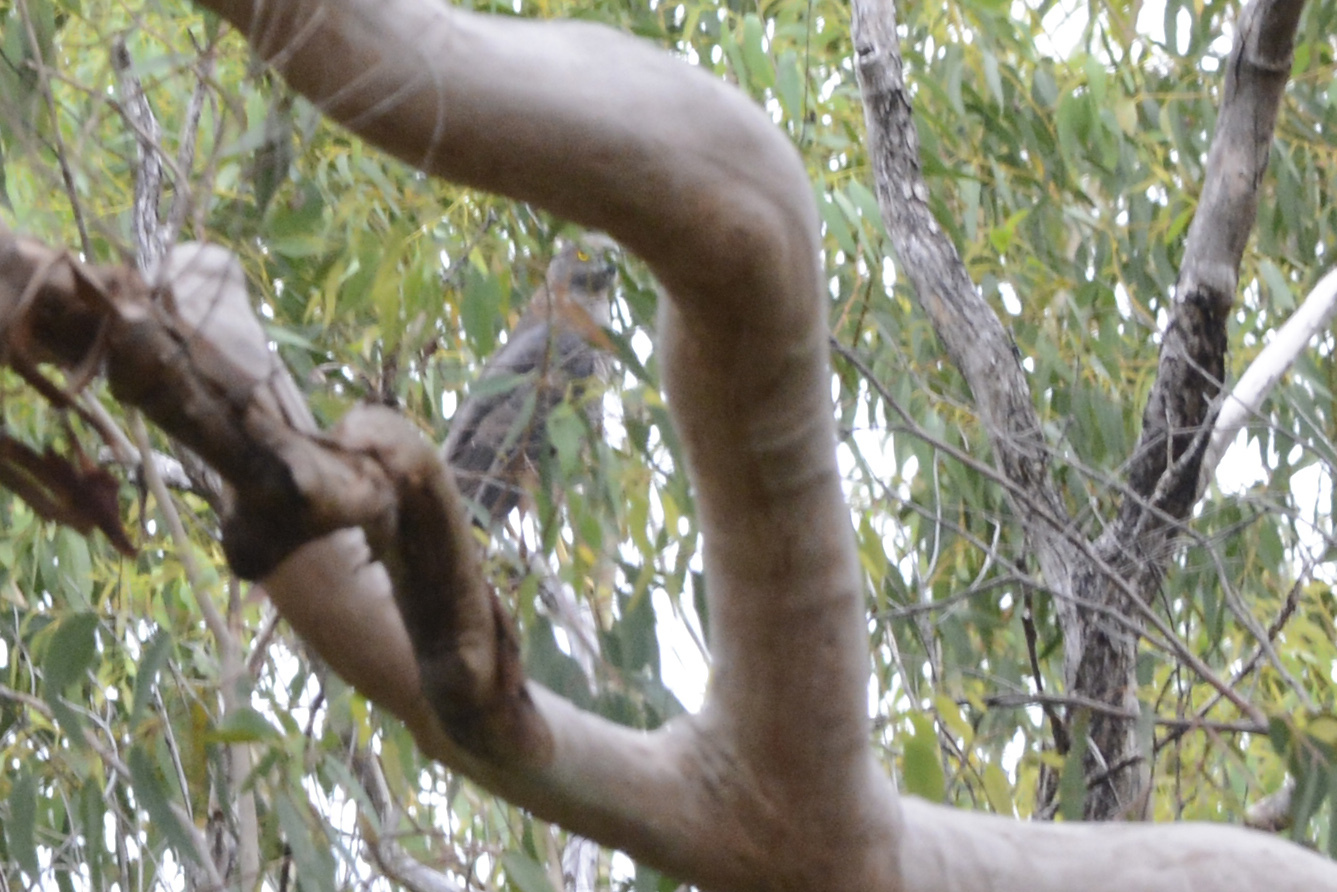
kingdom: Animalia
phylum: Chordata
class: Aves
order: Accipitriformes
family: Accipitridae
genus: Accipiter
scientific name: Accipiter fasciatus
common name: Brown goshawk
